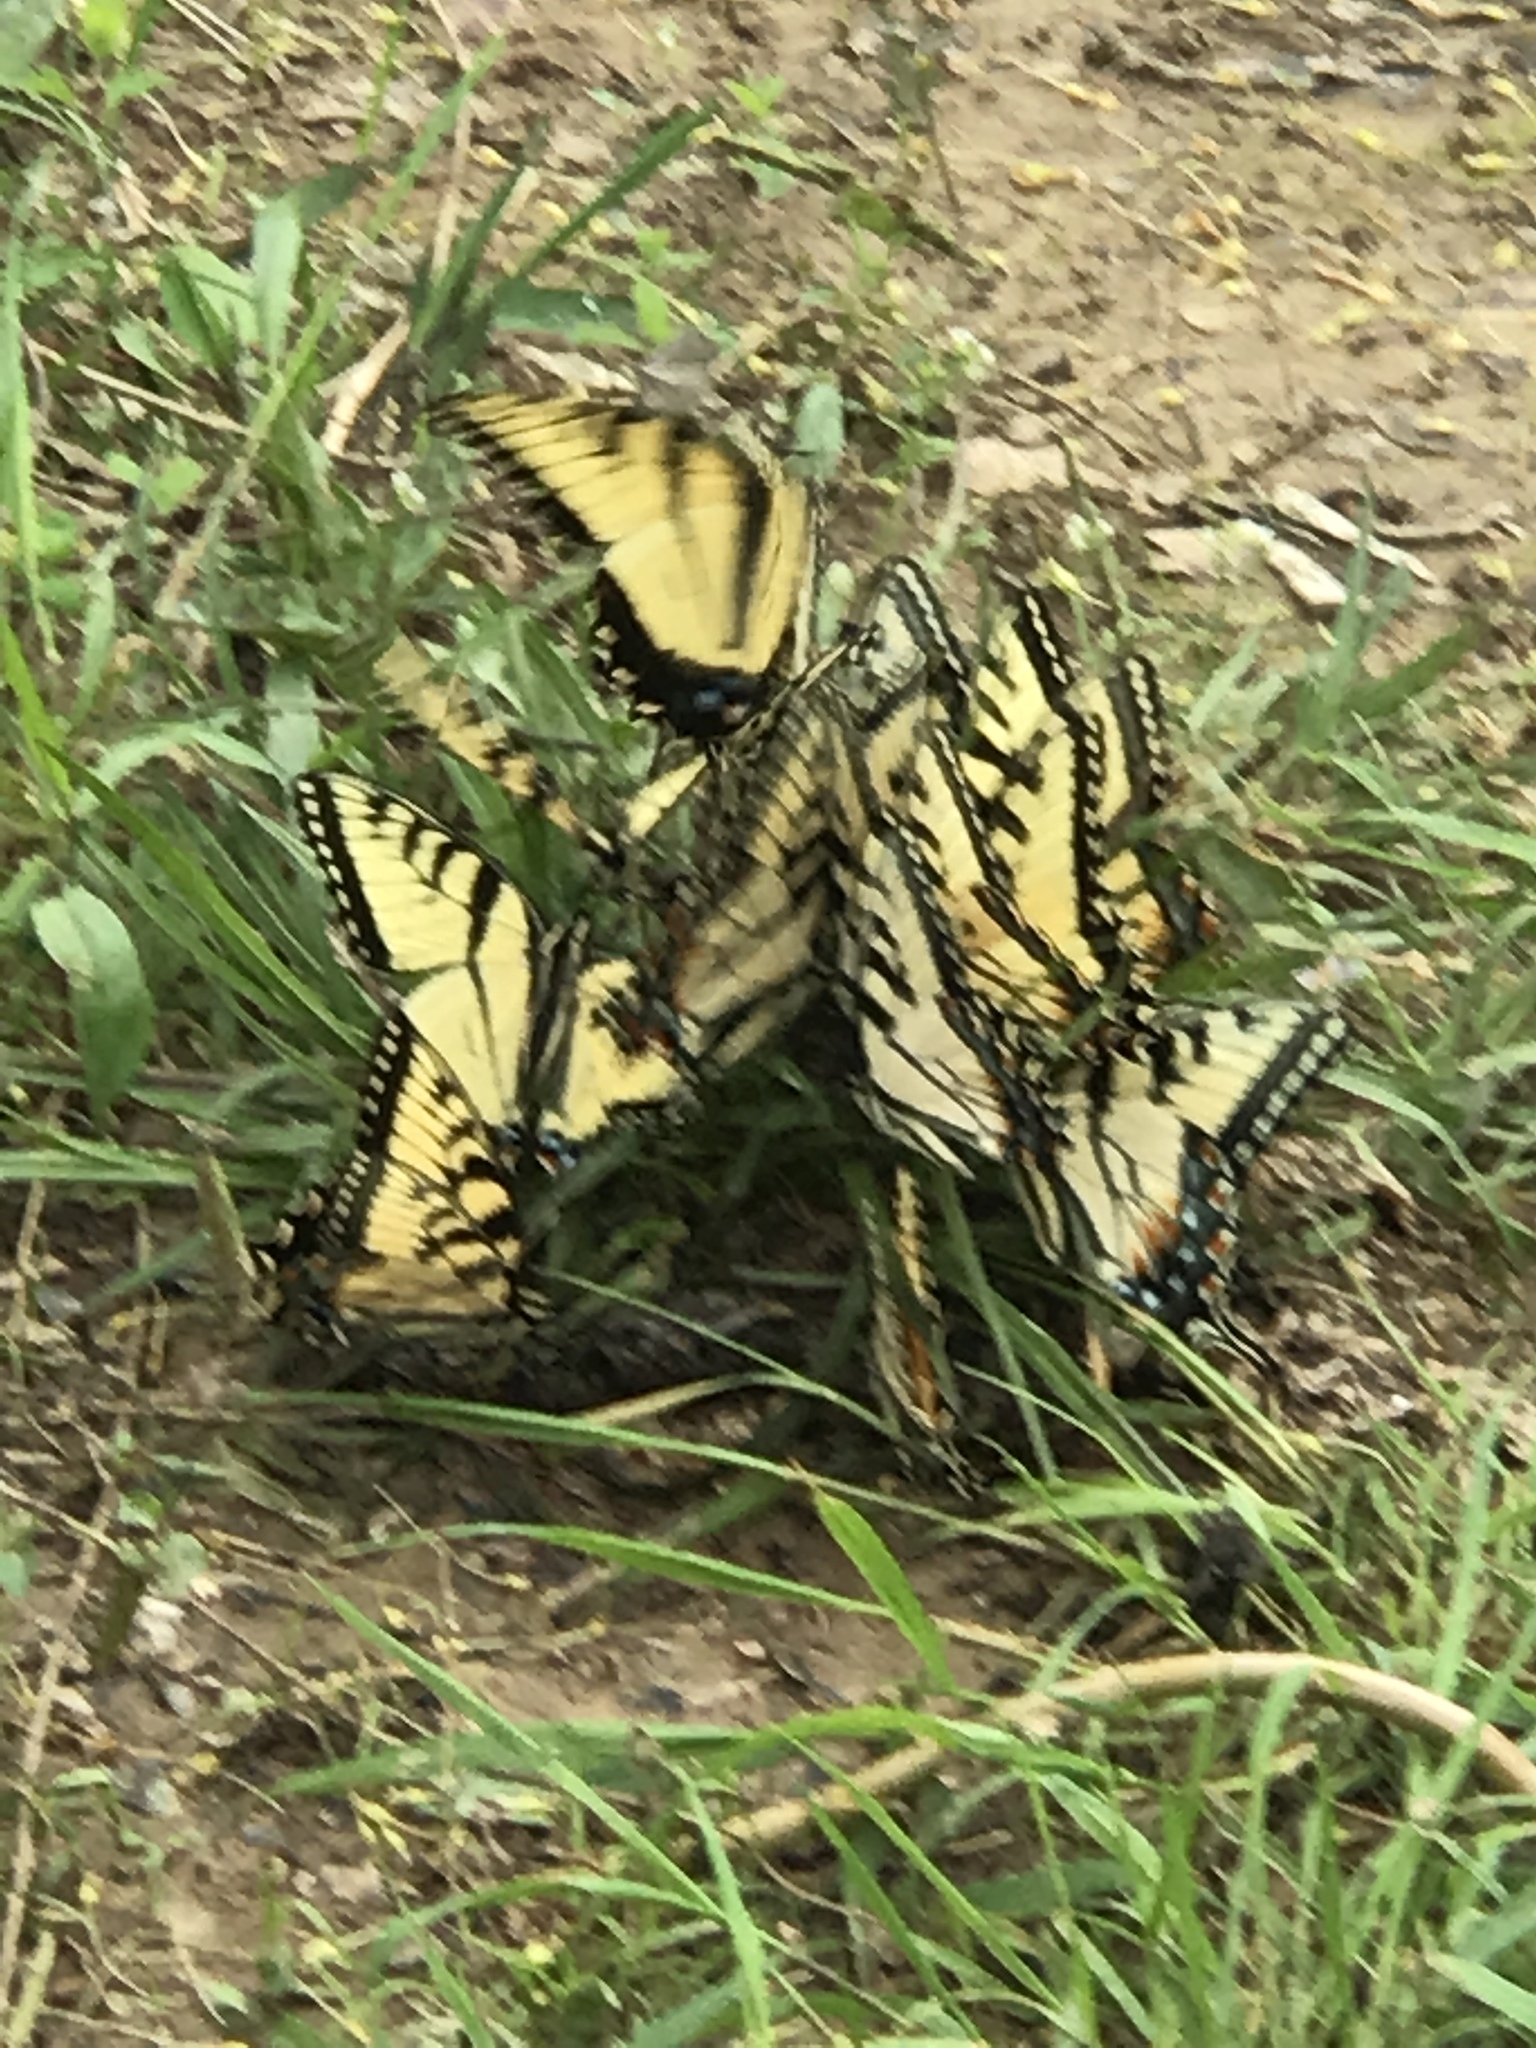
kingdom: Animalia
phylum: Arthropoda
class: Insecta
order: Lepidoptera
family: Papilionidae
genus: Papilio
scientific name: Papilio glaucus
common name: Tiger swallowtail
